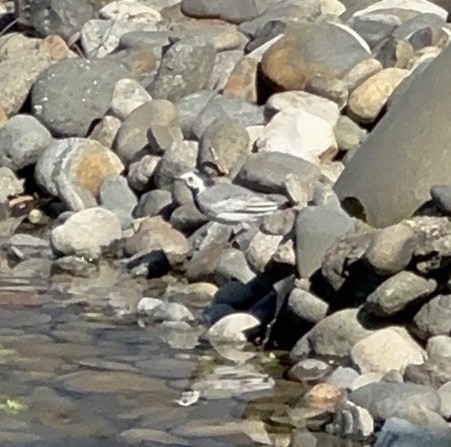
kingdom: Animalia
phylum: Chordata
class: Aves
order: Passeriformes
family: Motacillidae
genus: Motacilla
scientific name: Motacilla alba
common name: White wagtail
